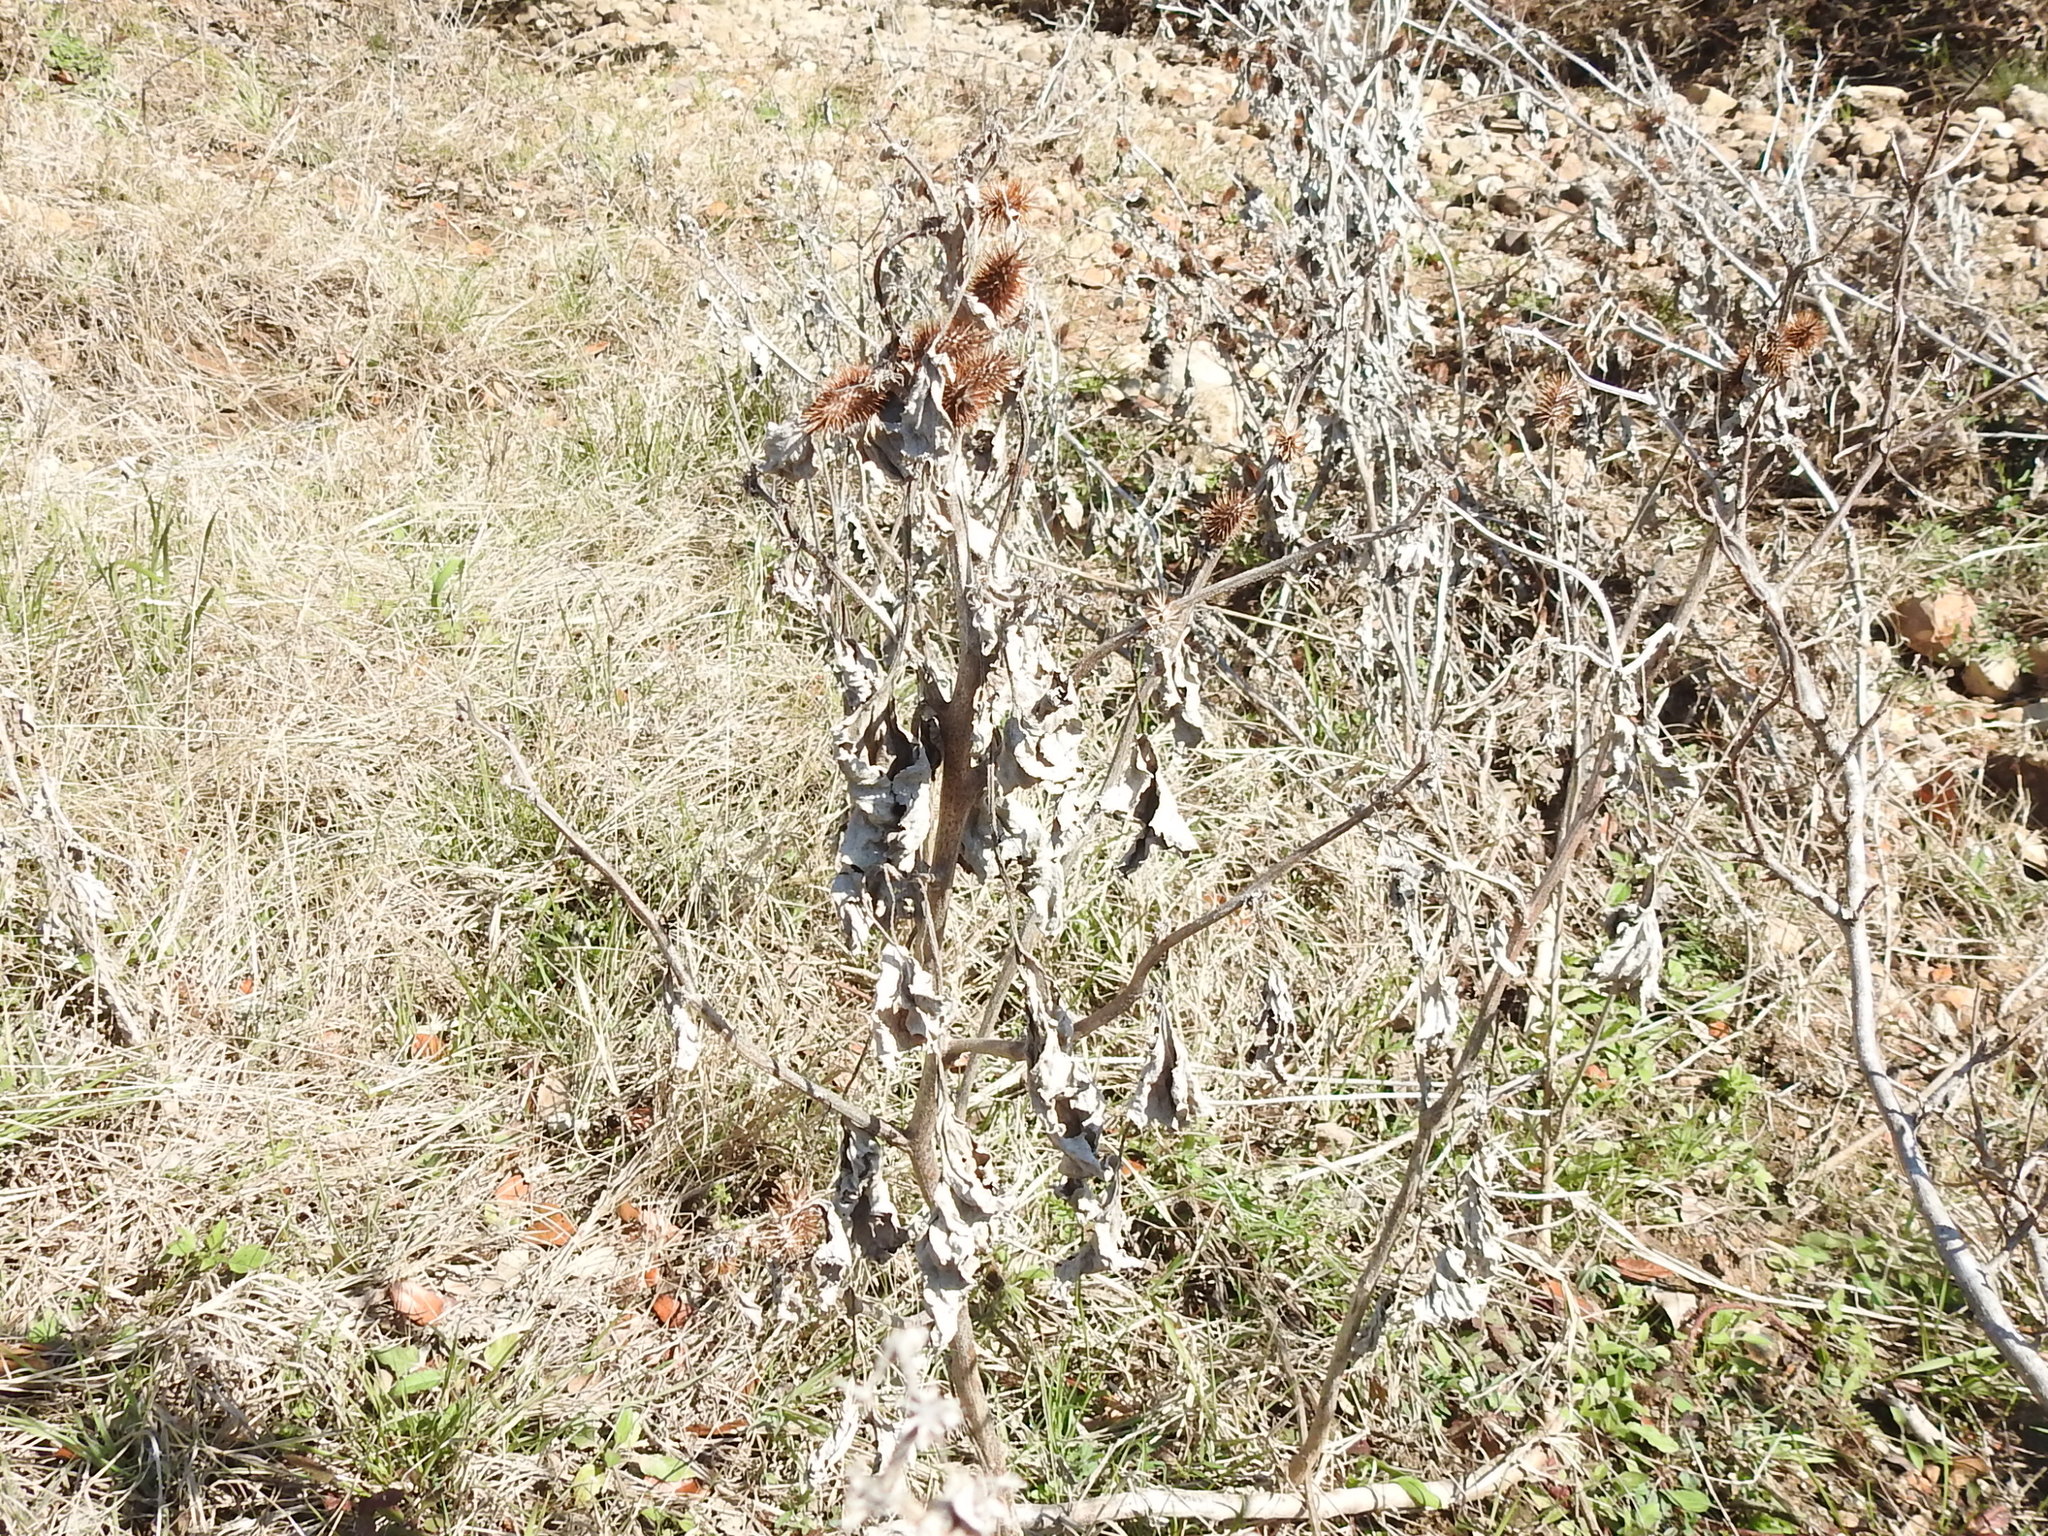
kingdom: Plantae
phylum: Tracheophyta
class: Magnoliopsida
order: Asterales
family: Asteraceae
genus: Xanthium
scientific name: Xanthium strumarium
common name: Rough cocklebur
